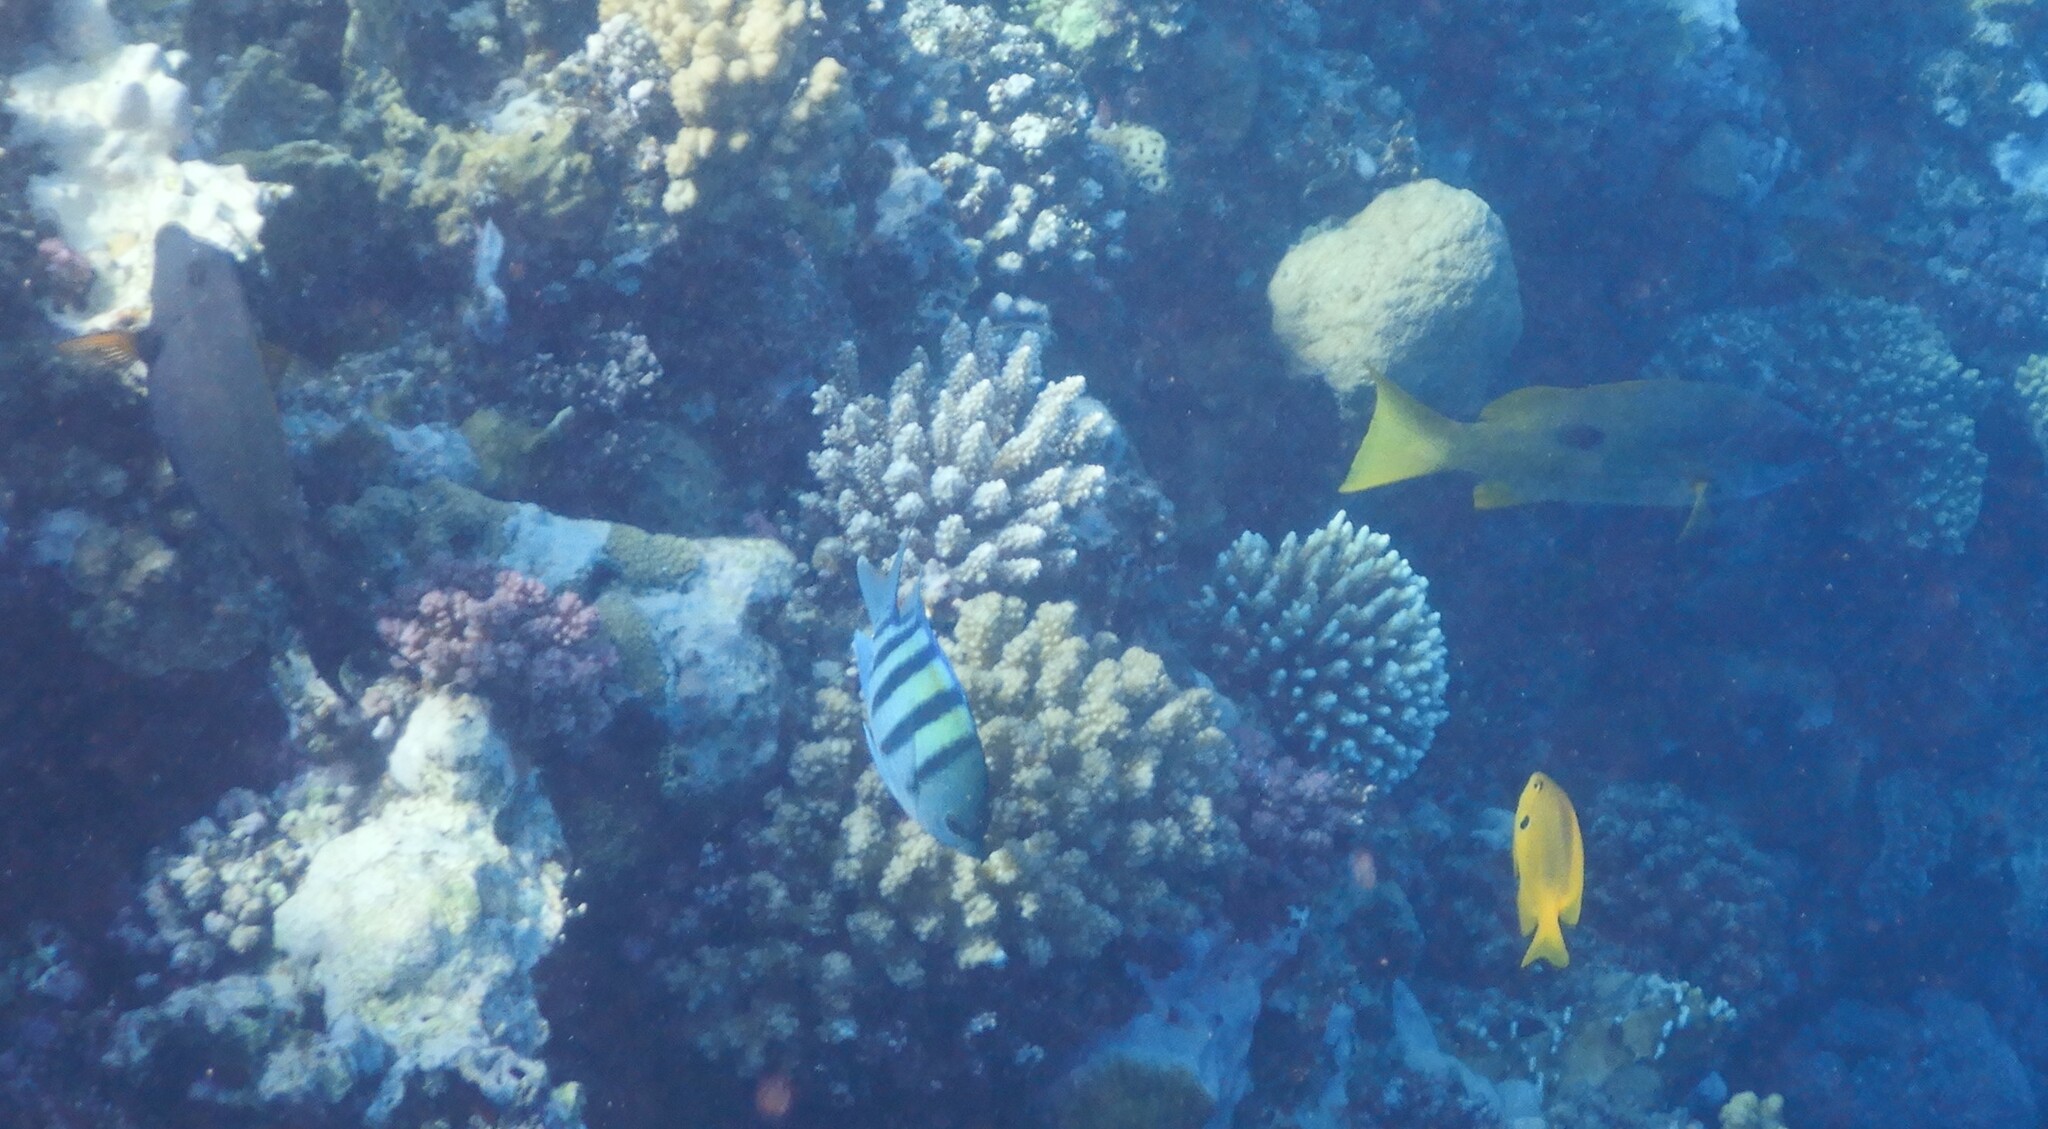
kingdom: Animalia
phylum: Chordata
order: Perciformes
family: Pomacentridae
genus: Abudefduf
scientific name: Abudefduf vaigiensis
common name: Indo-pacific sergeant
